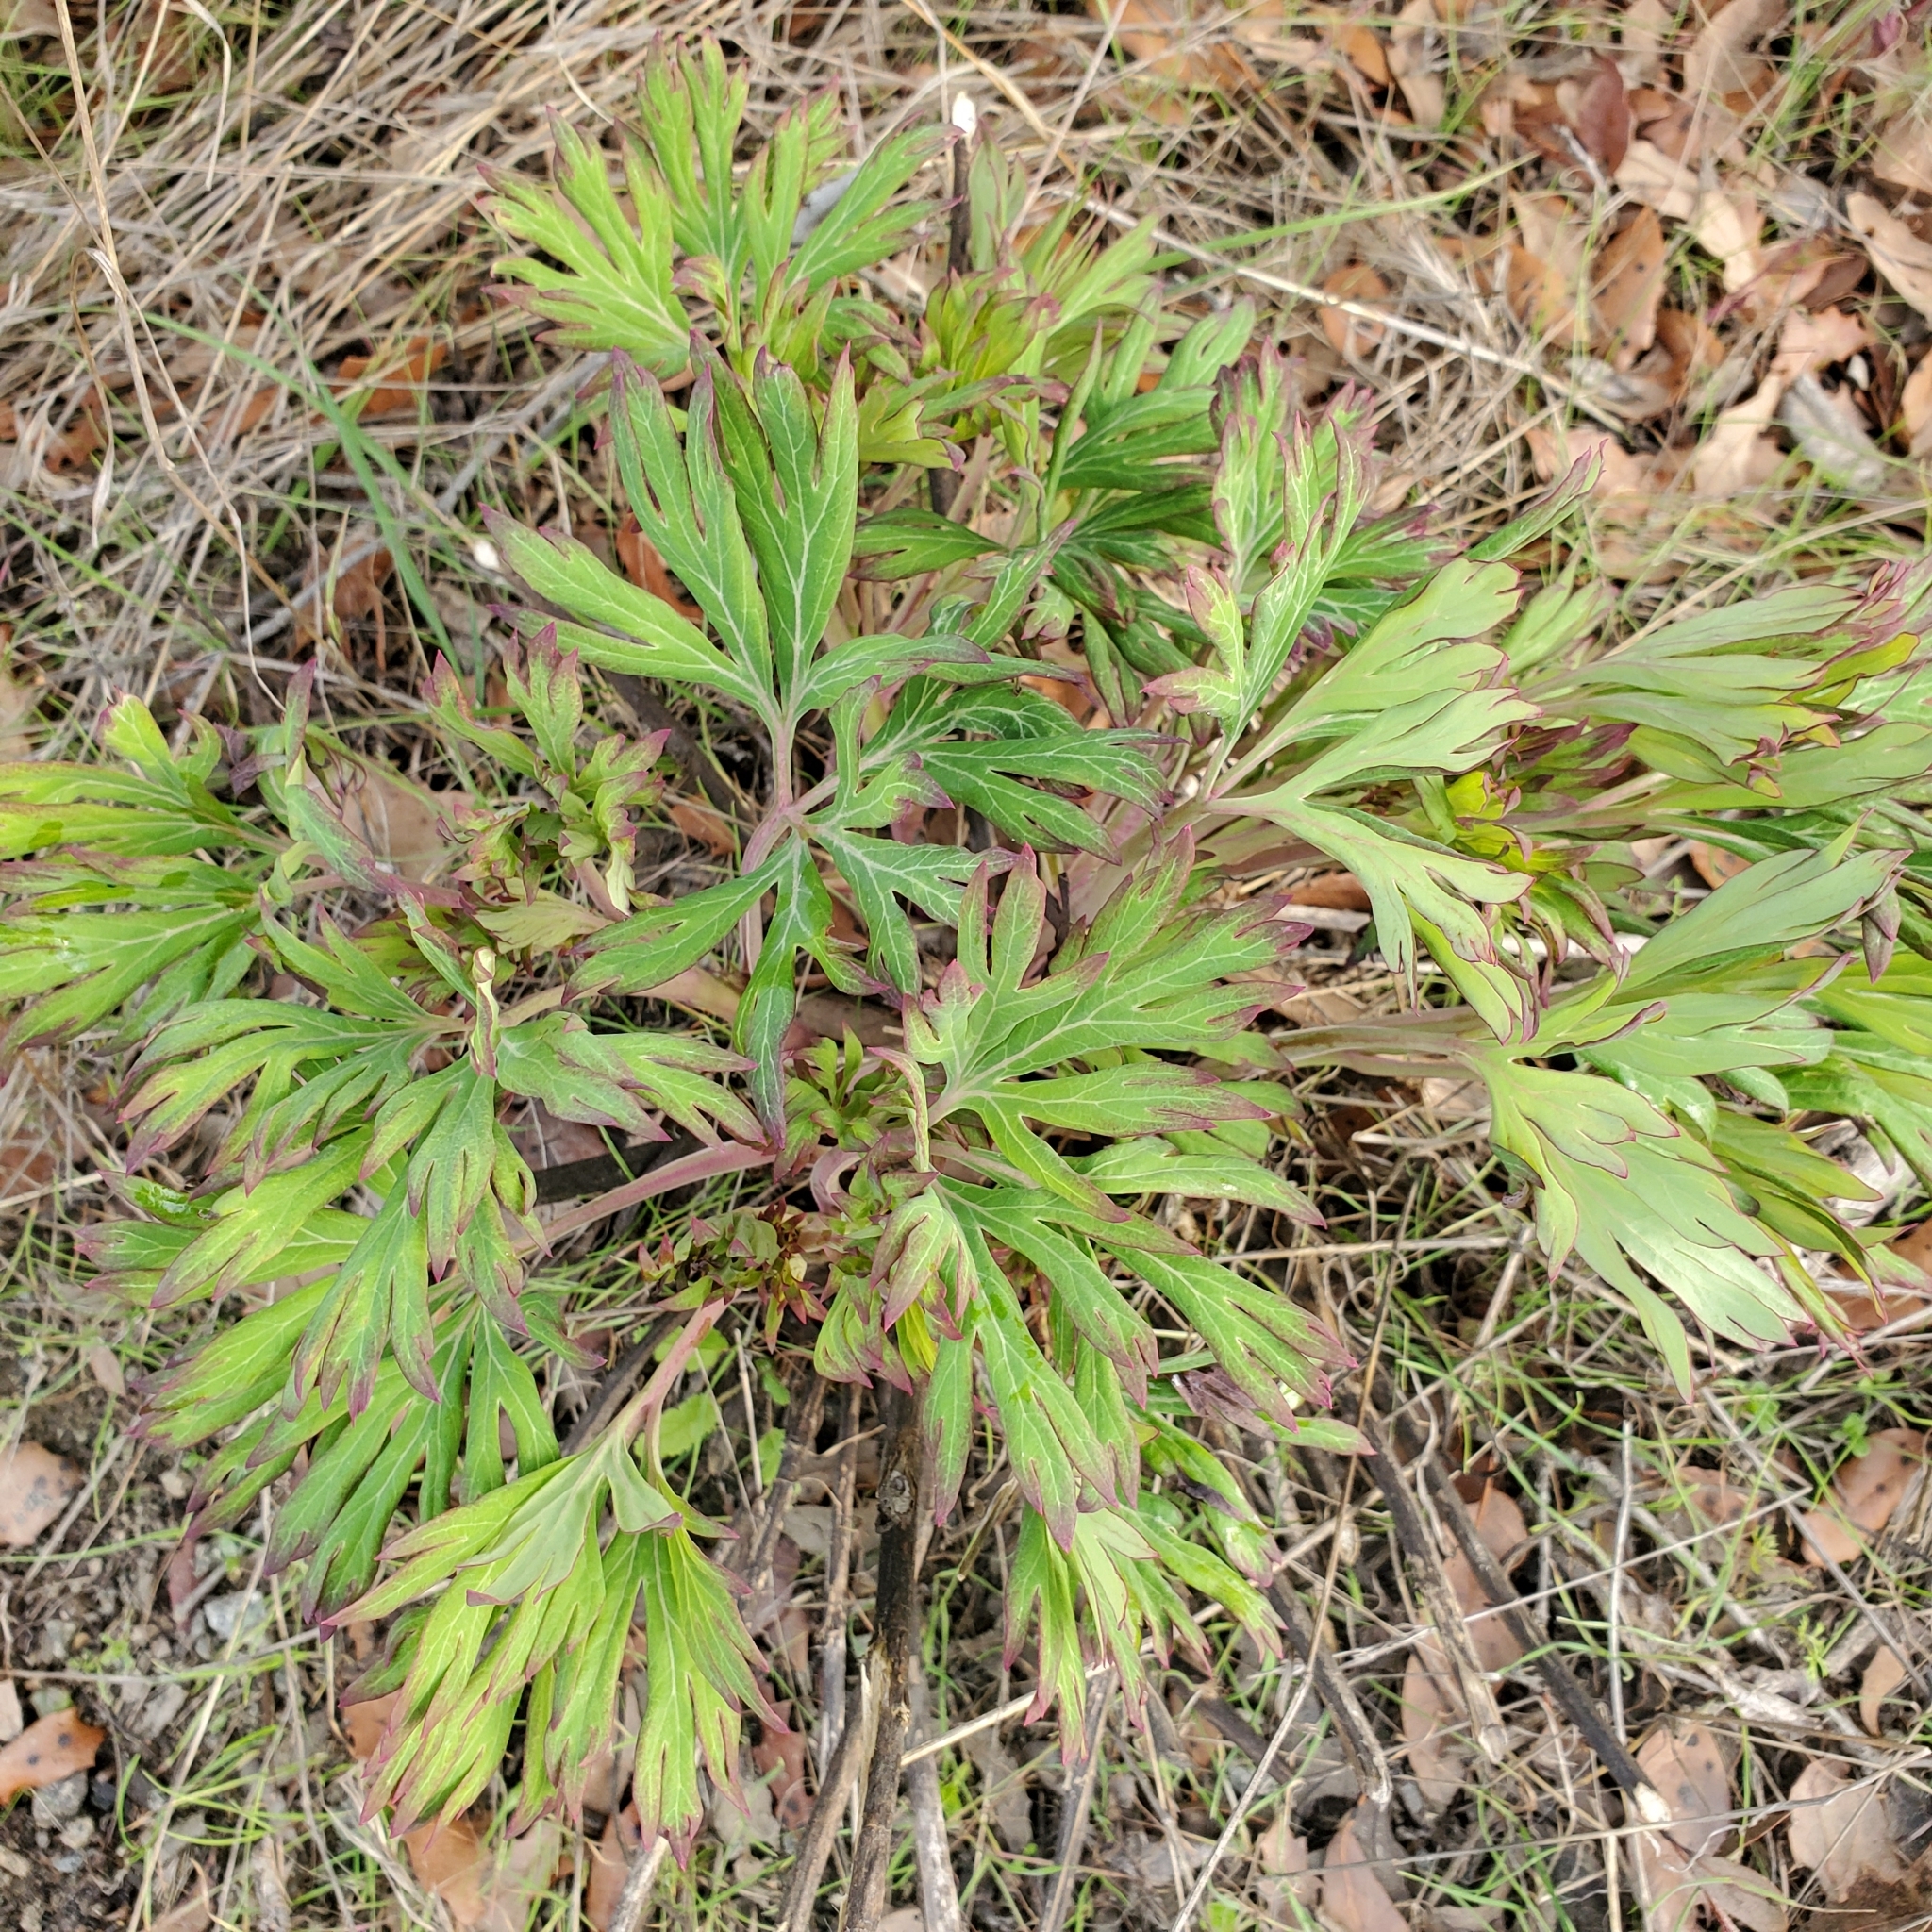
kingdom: Plantae
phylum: Tracheophyta
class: Magnoliopsida
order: Saxifragales
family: Paeoniaceae
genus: Paeonia
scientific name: Paeonia californica
